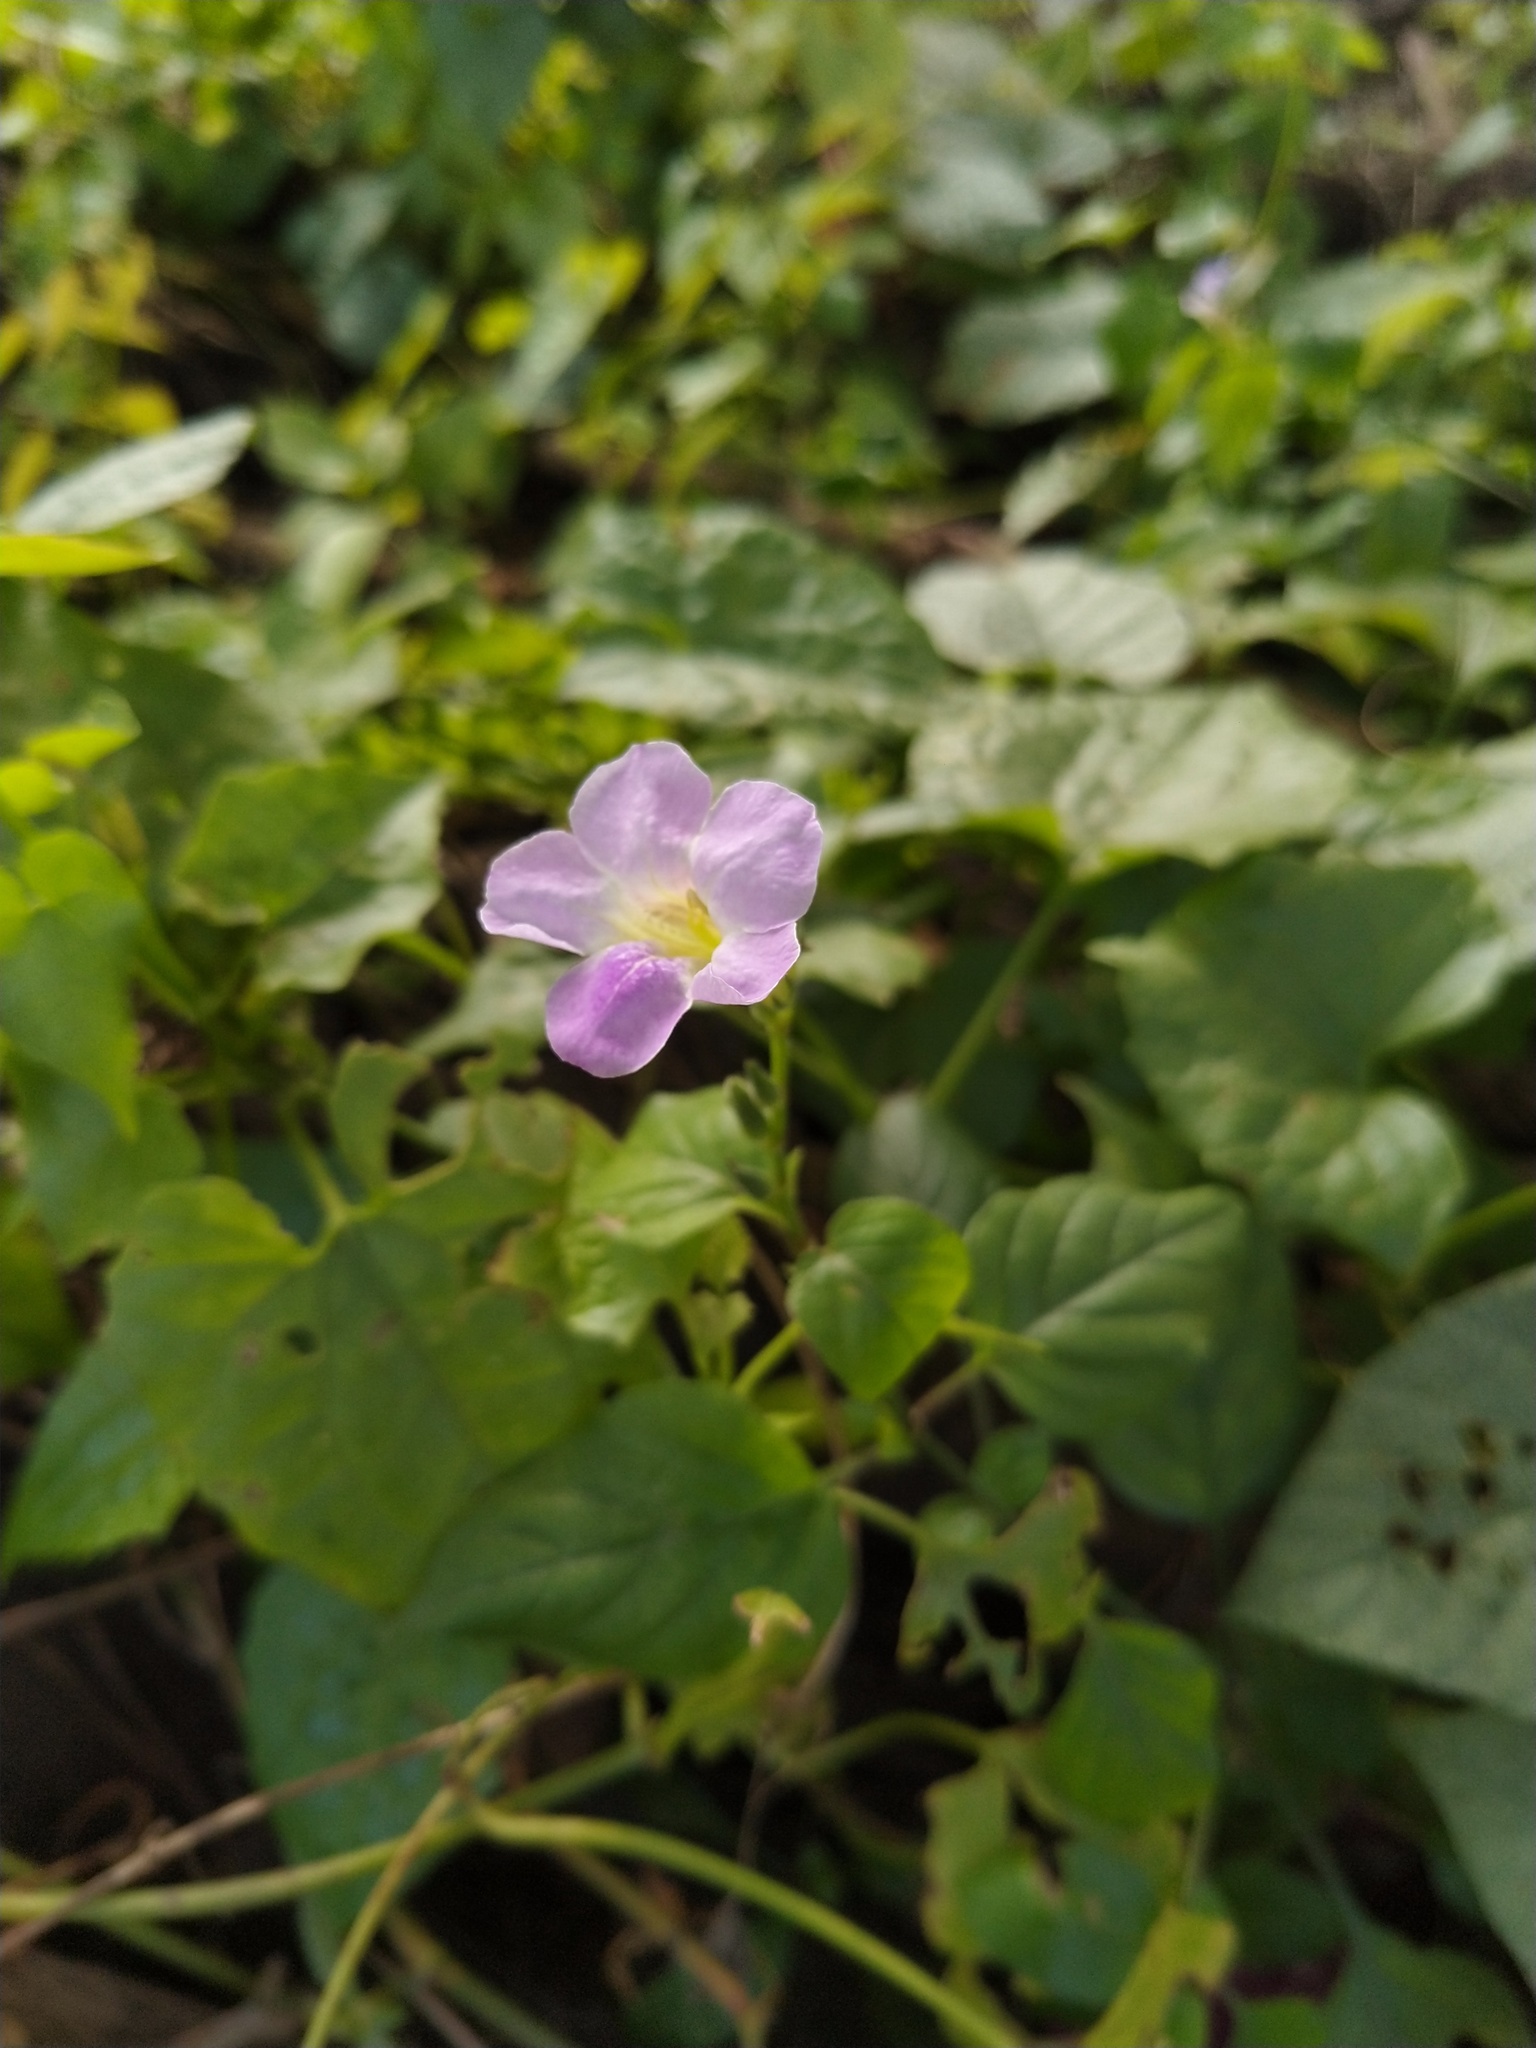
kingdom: Plantae
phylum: Tracheophyta
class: Magnoliopsida
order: Lamiales
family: Acanthaceae
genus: Asystasia
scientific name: Asystasia gangetica
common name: Chinese violet
